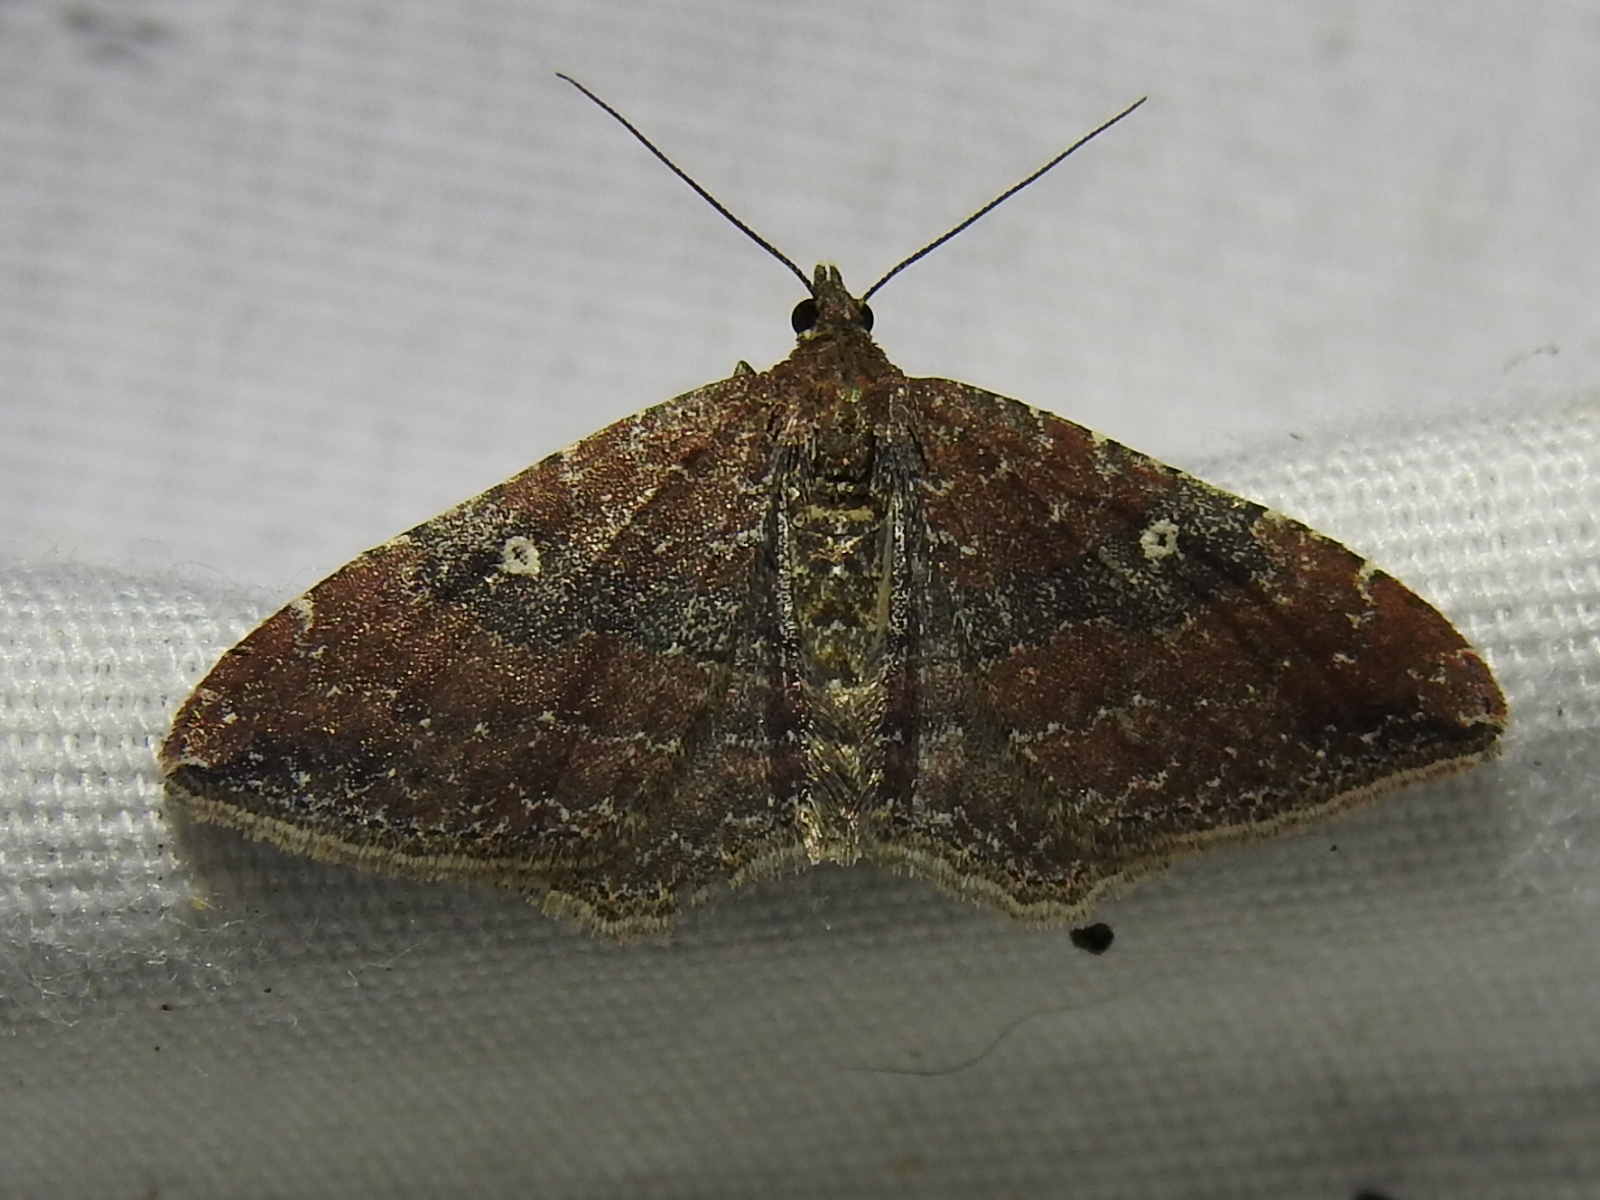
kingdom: Animalia
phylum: Arthropoda
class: Insecta
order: Lepidoptera
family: Geometridae
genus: Orthonama
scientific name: Orthonama obstipata
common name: The gem
